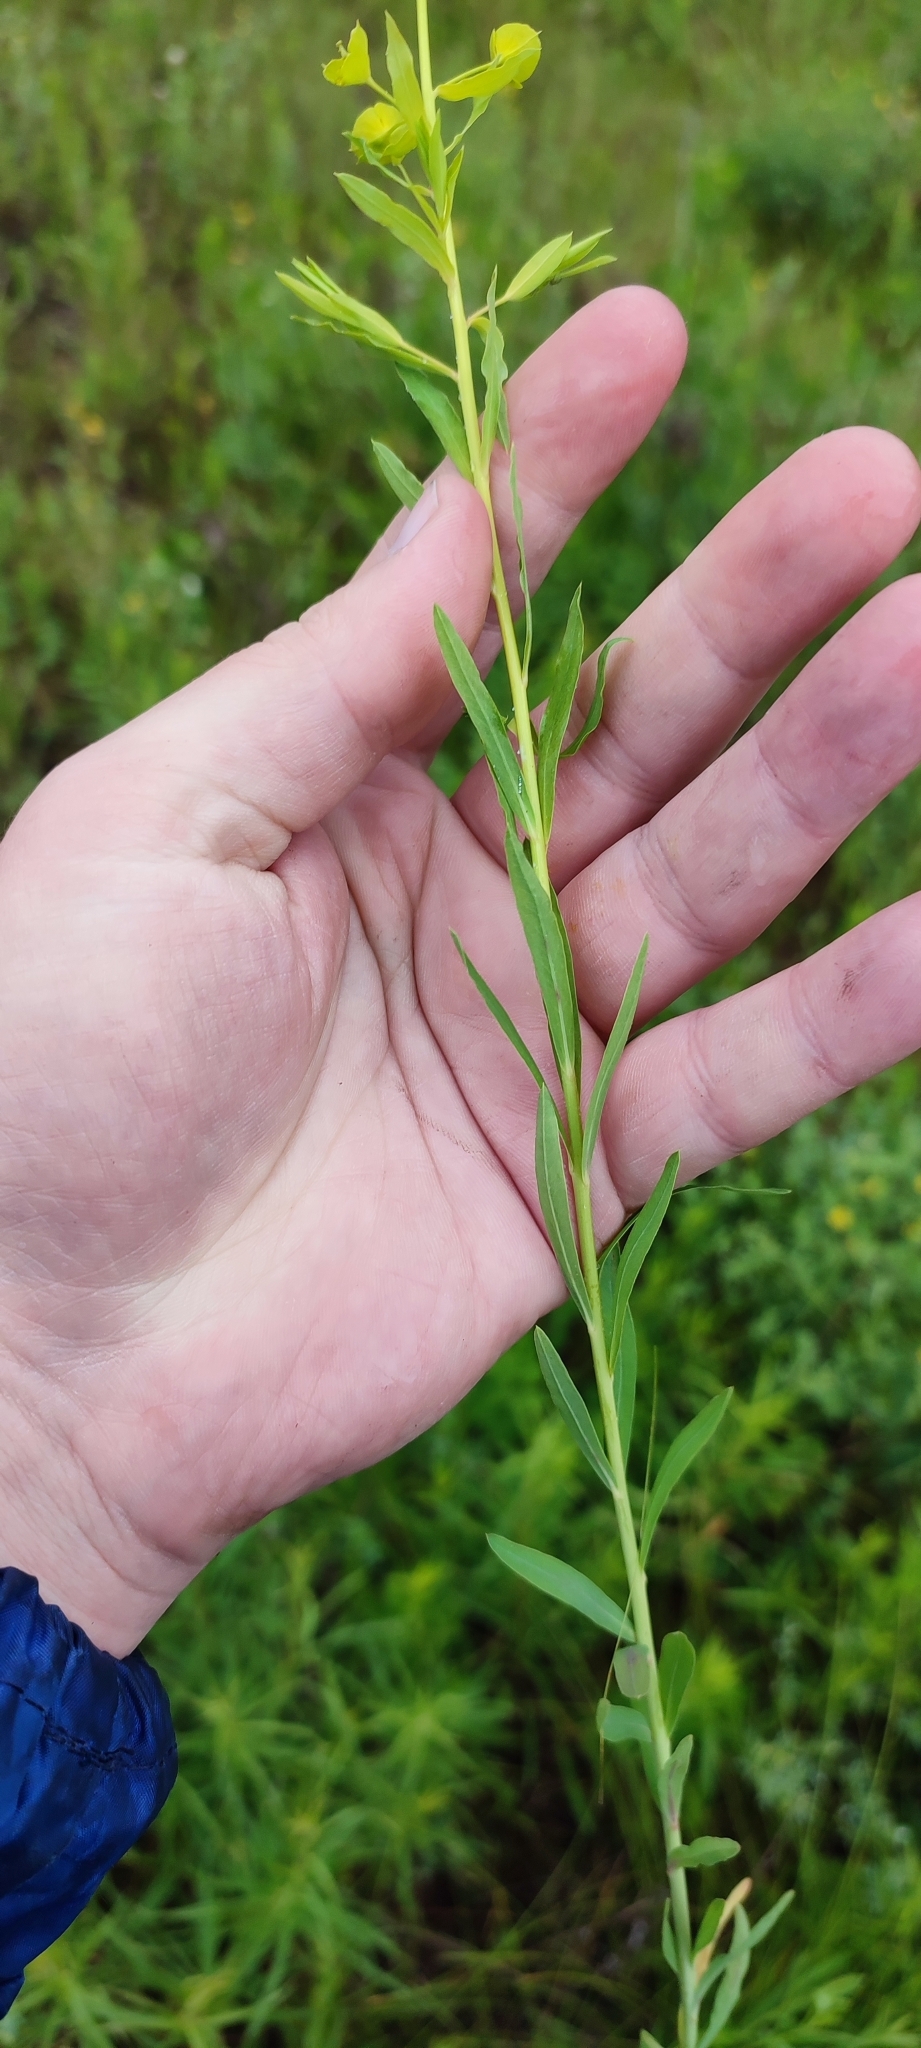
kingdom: Plantae
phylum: Tracheophyta
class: Magnoliopsida
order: Malpighiales
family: Euphorbiaceae
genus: Euphorbia
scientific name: Euphorbia virgata
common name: Leafy spurge
